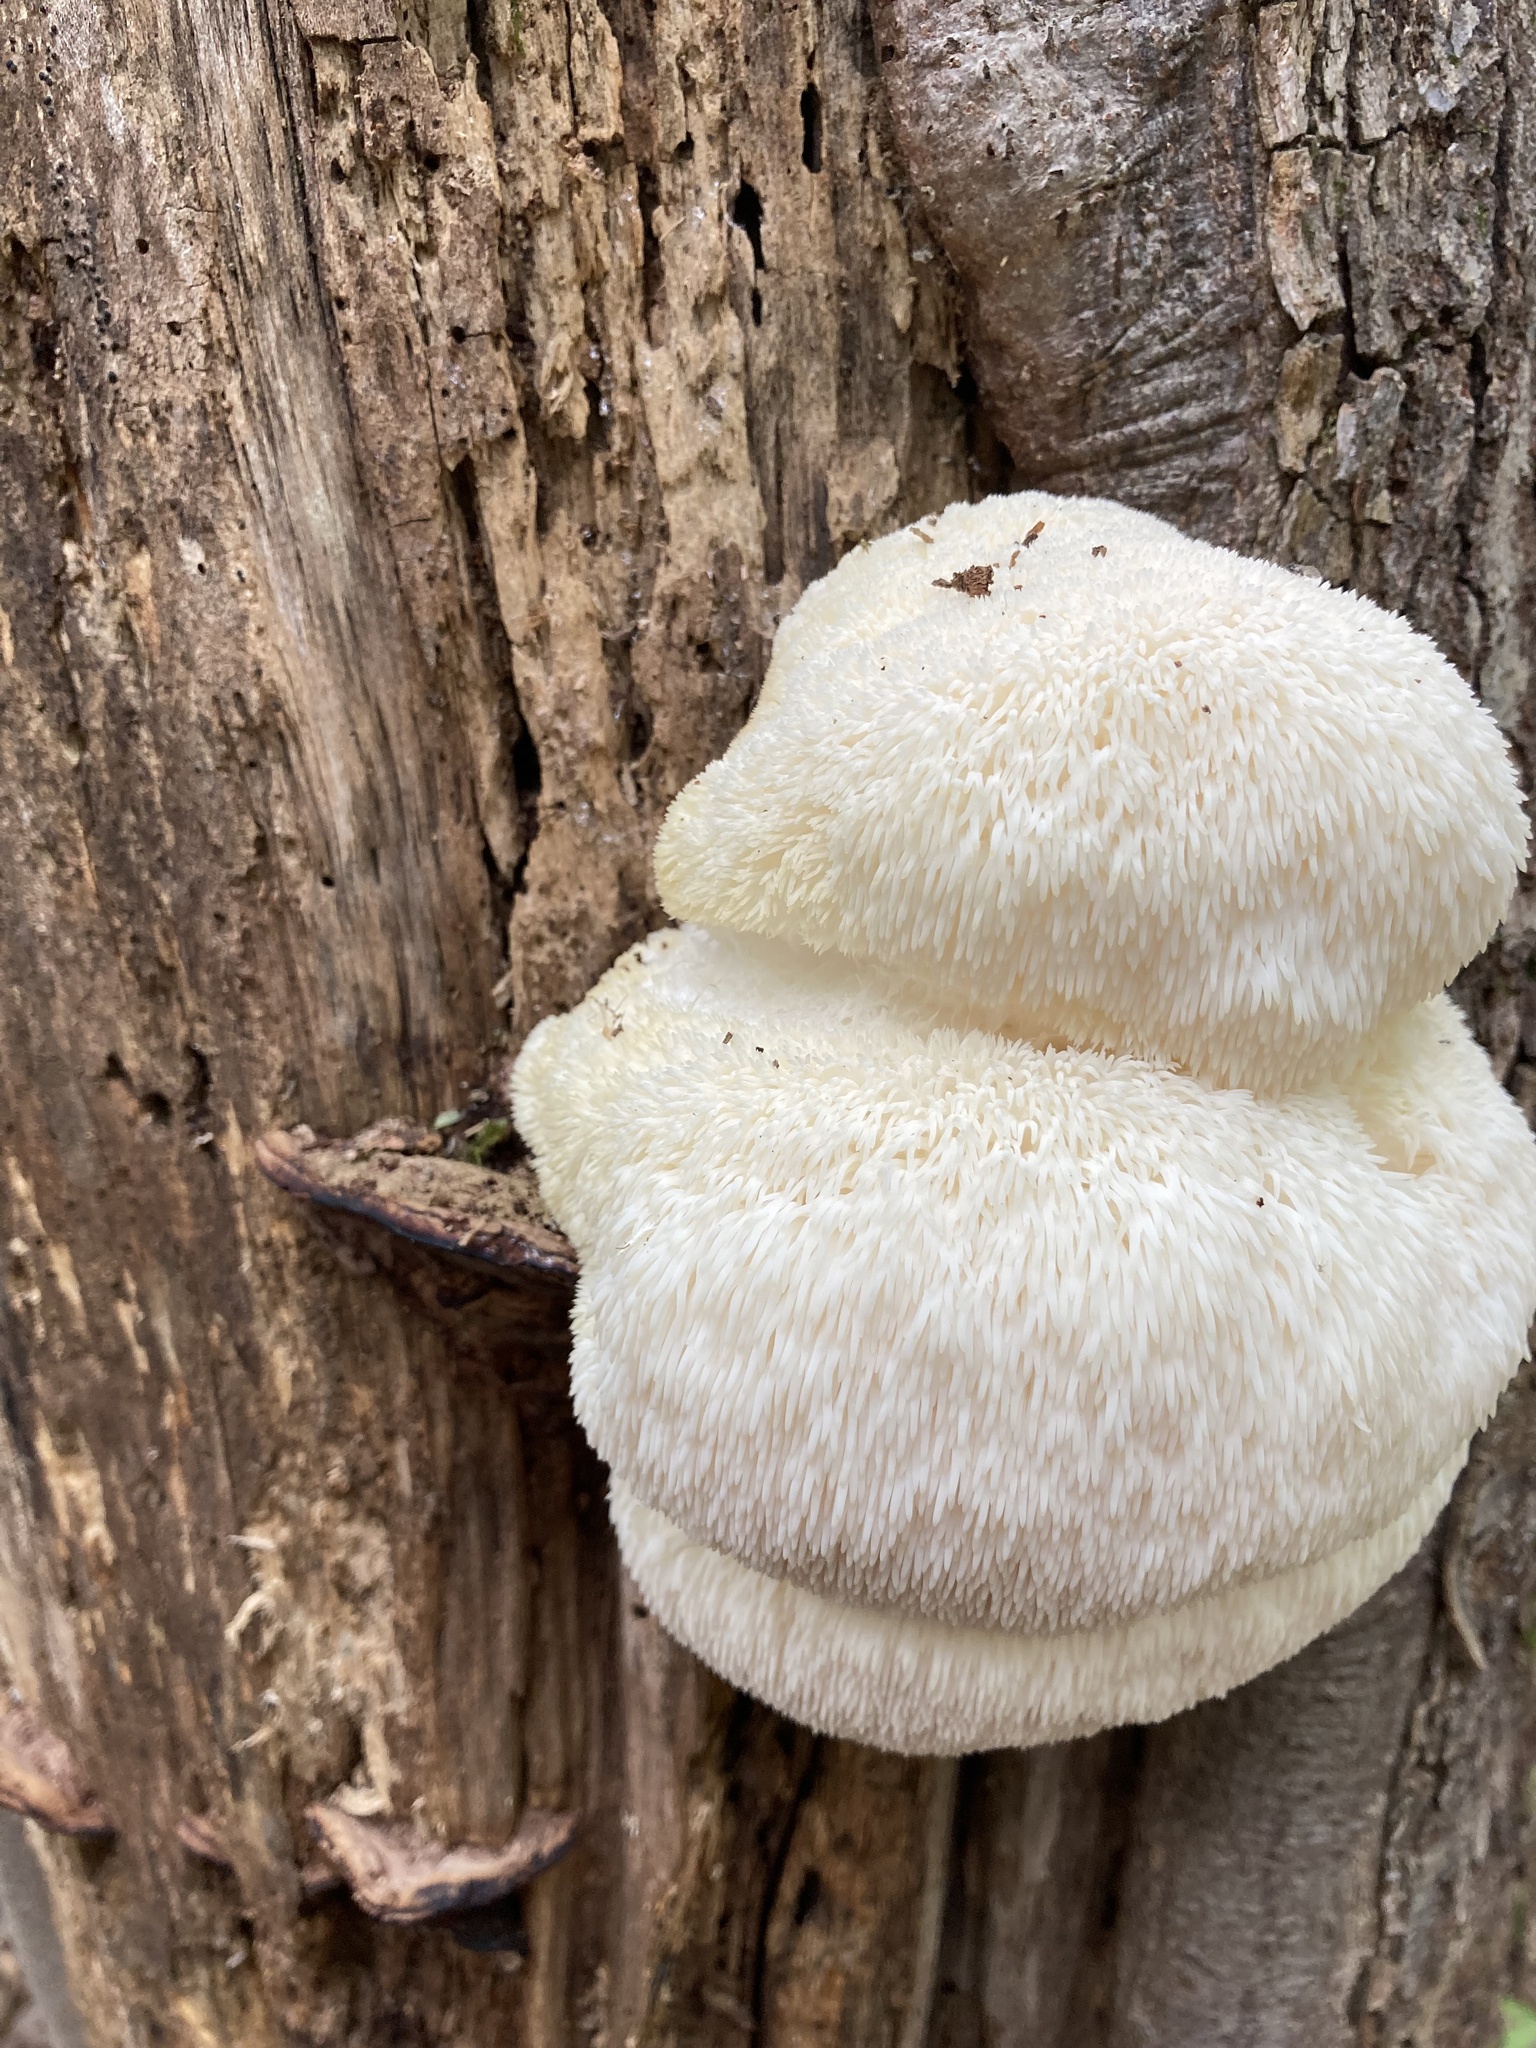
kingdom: Fungi
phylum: Basidiomycota
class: Agaricomycetes
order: Russulales
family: Hericiaceae
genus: Hericium
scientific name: Hericium erinaceus
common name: Bearded tooth
